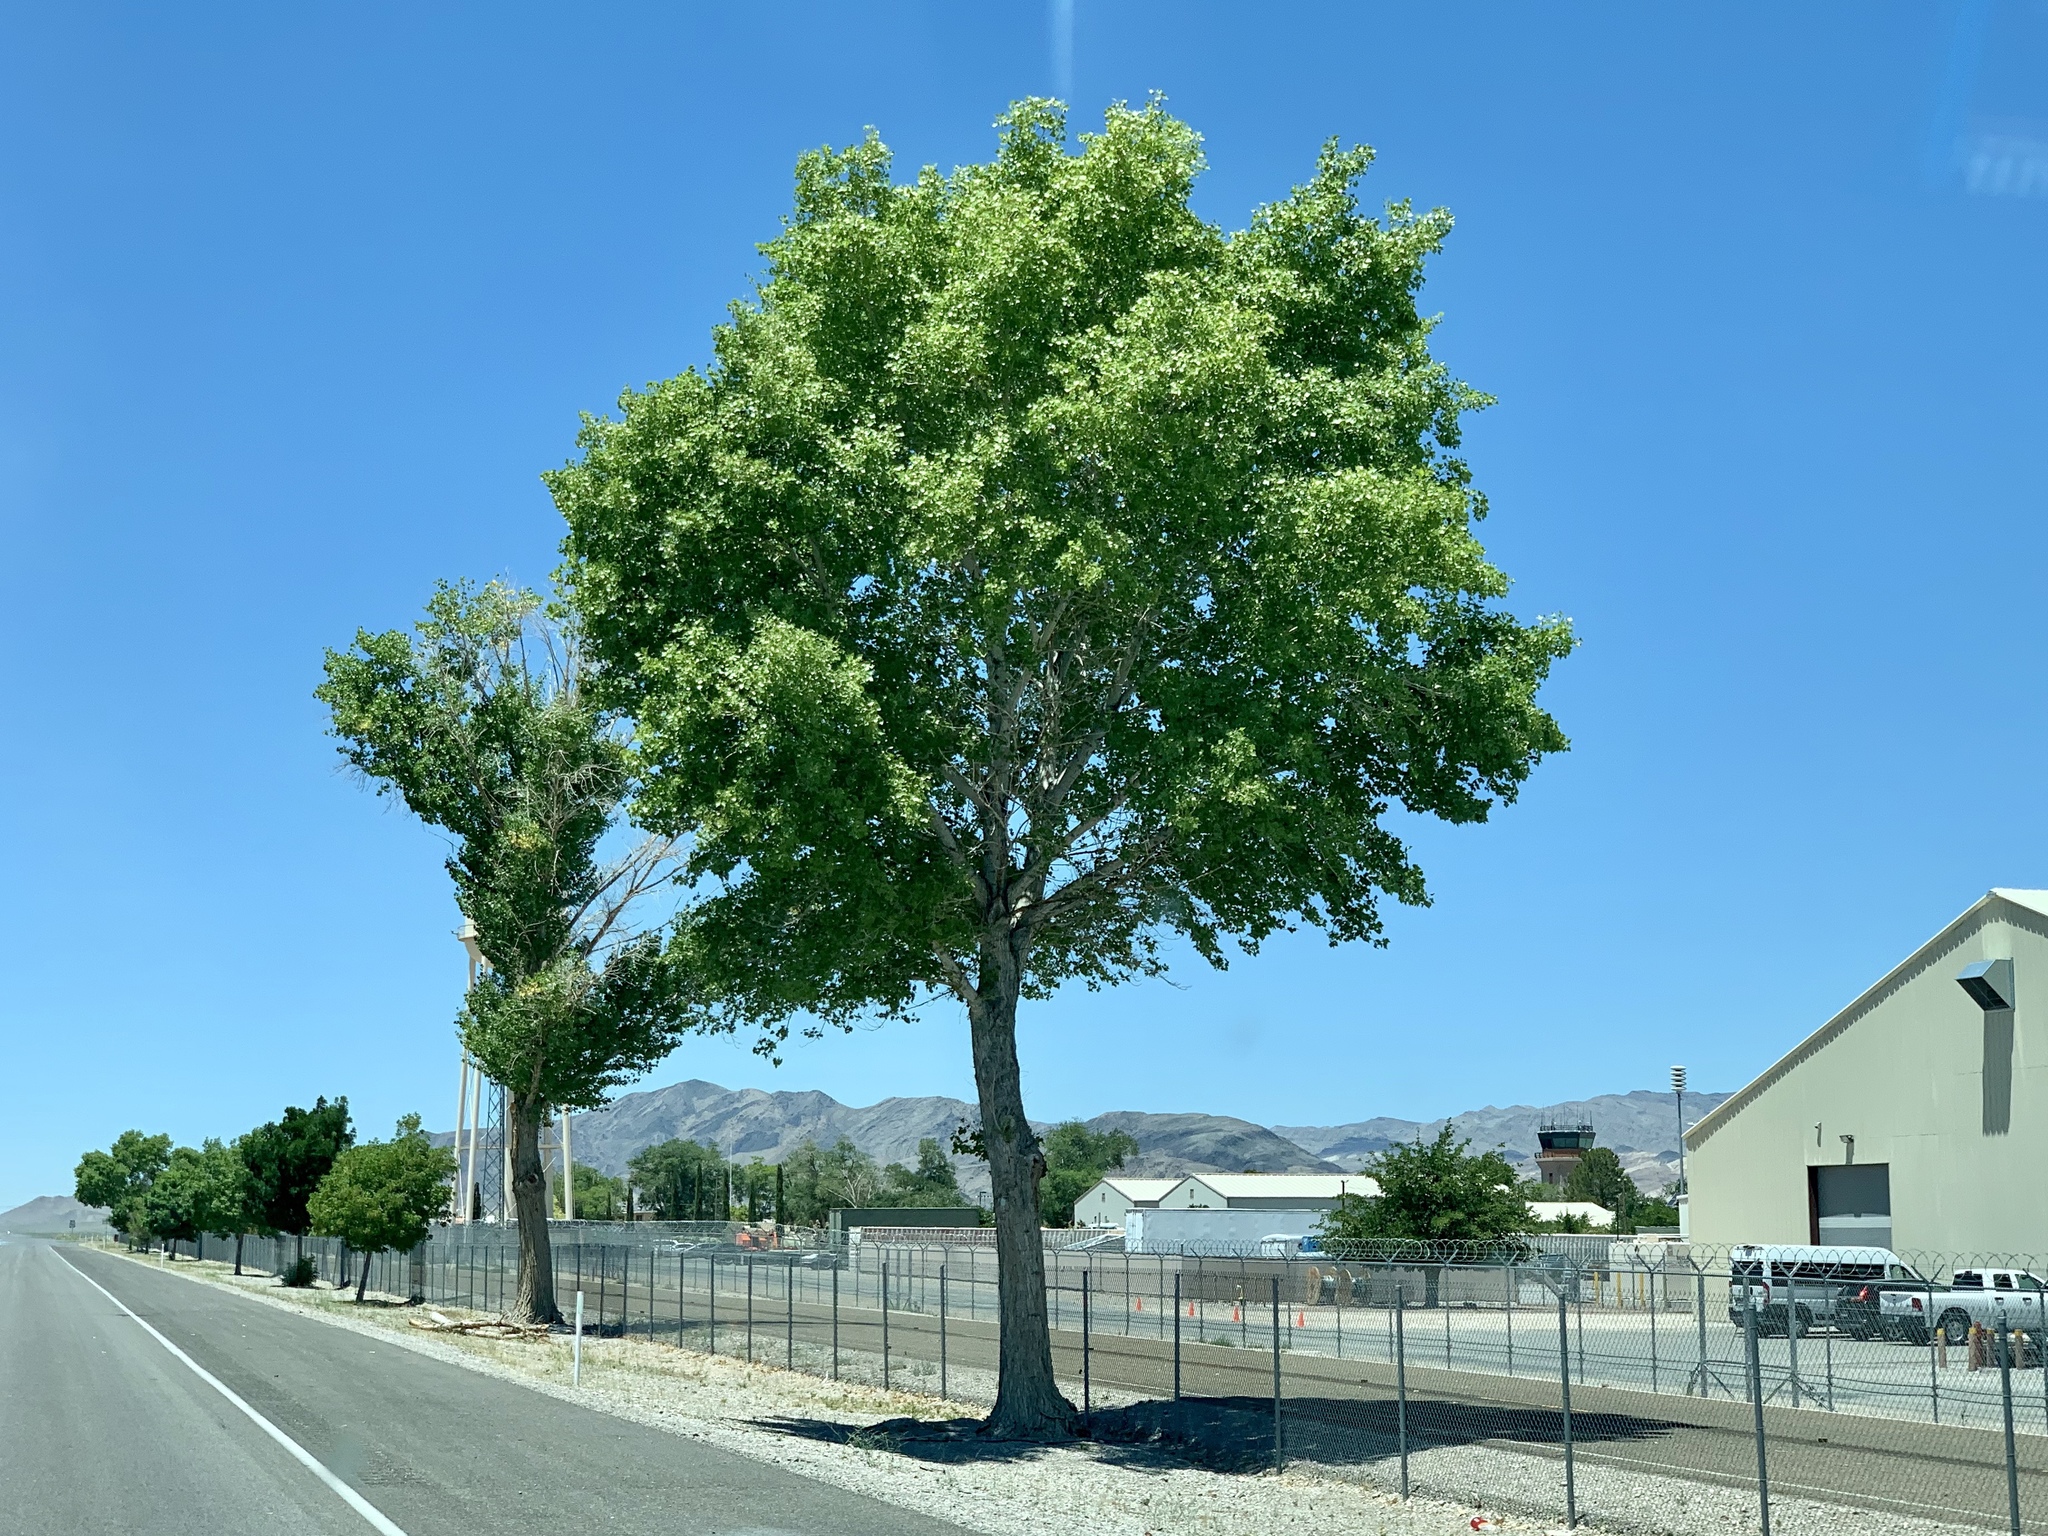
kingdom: Plantae
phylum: Tracheophyta
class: Magnoliopsida
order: Malpighiales
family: Salicaceae
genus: Populus
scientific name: Populus fremontii
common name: Fremont's cottonwood
